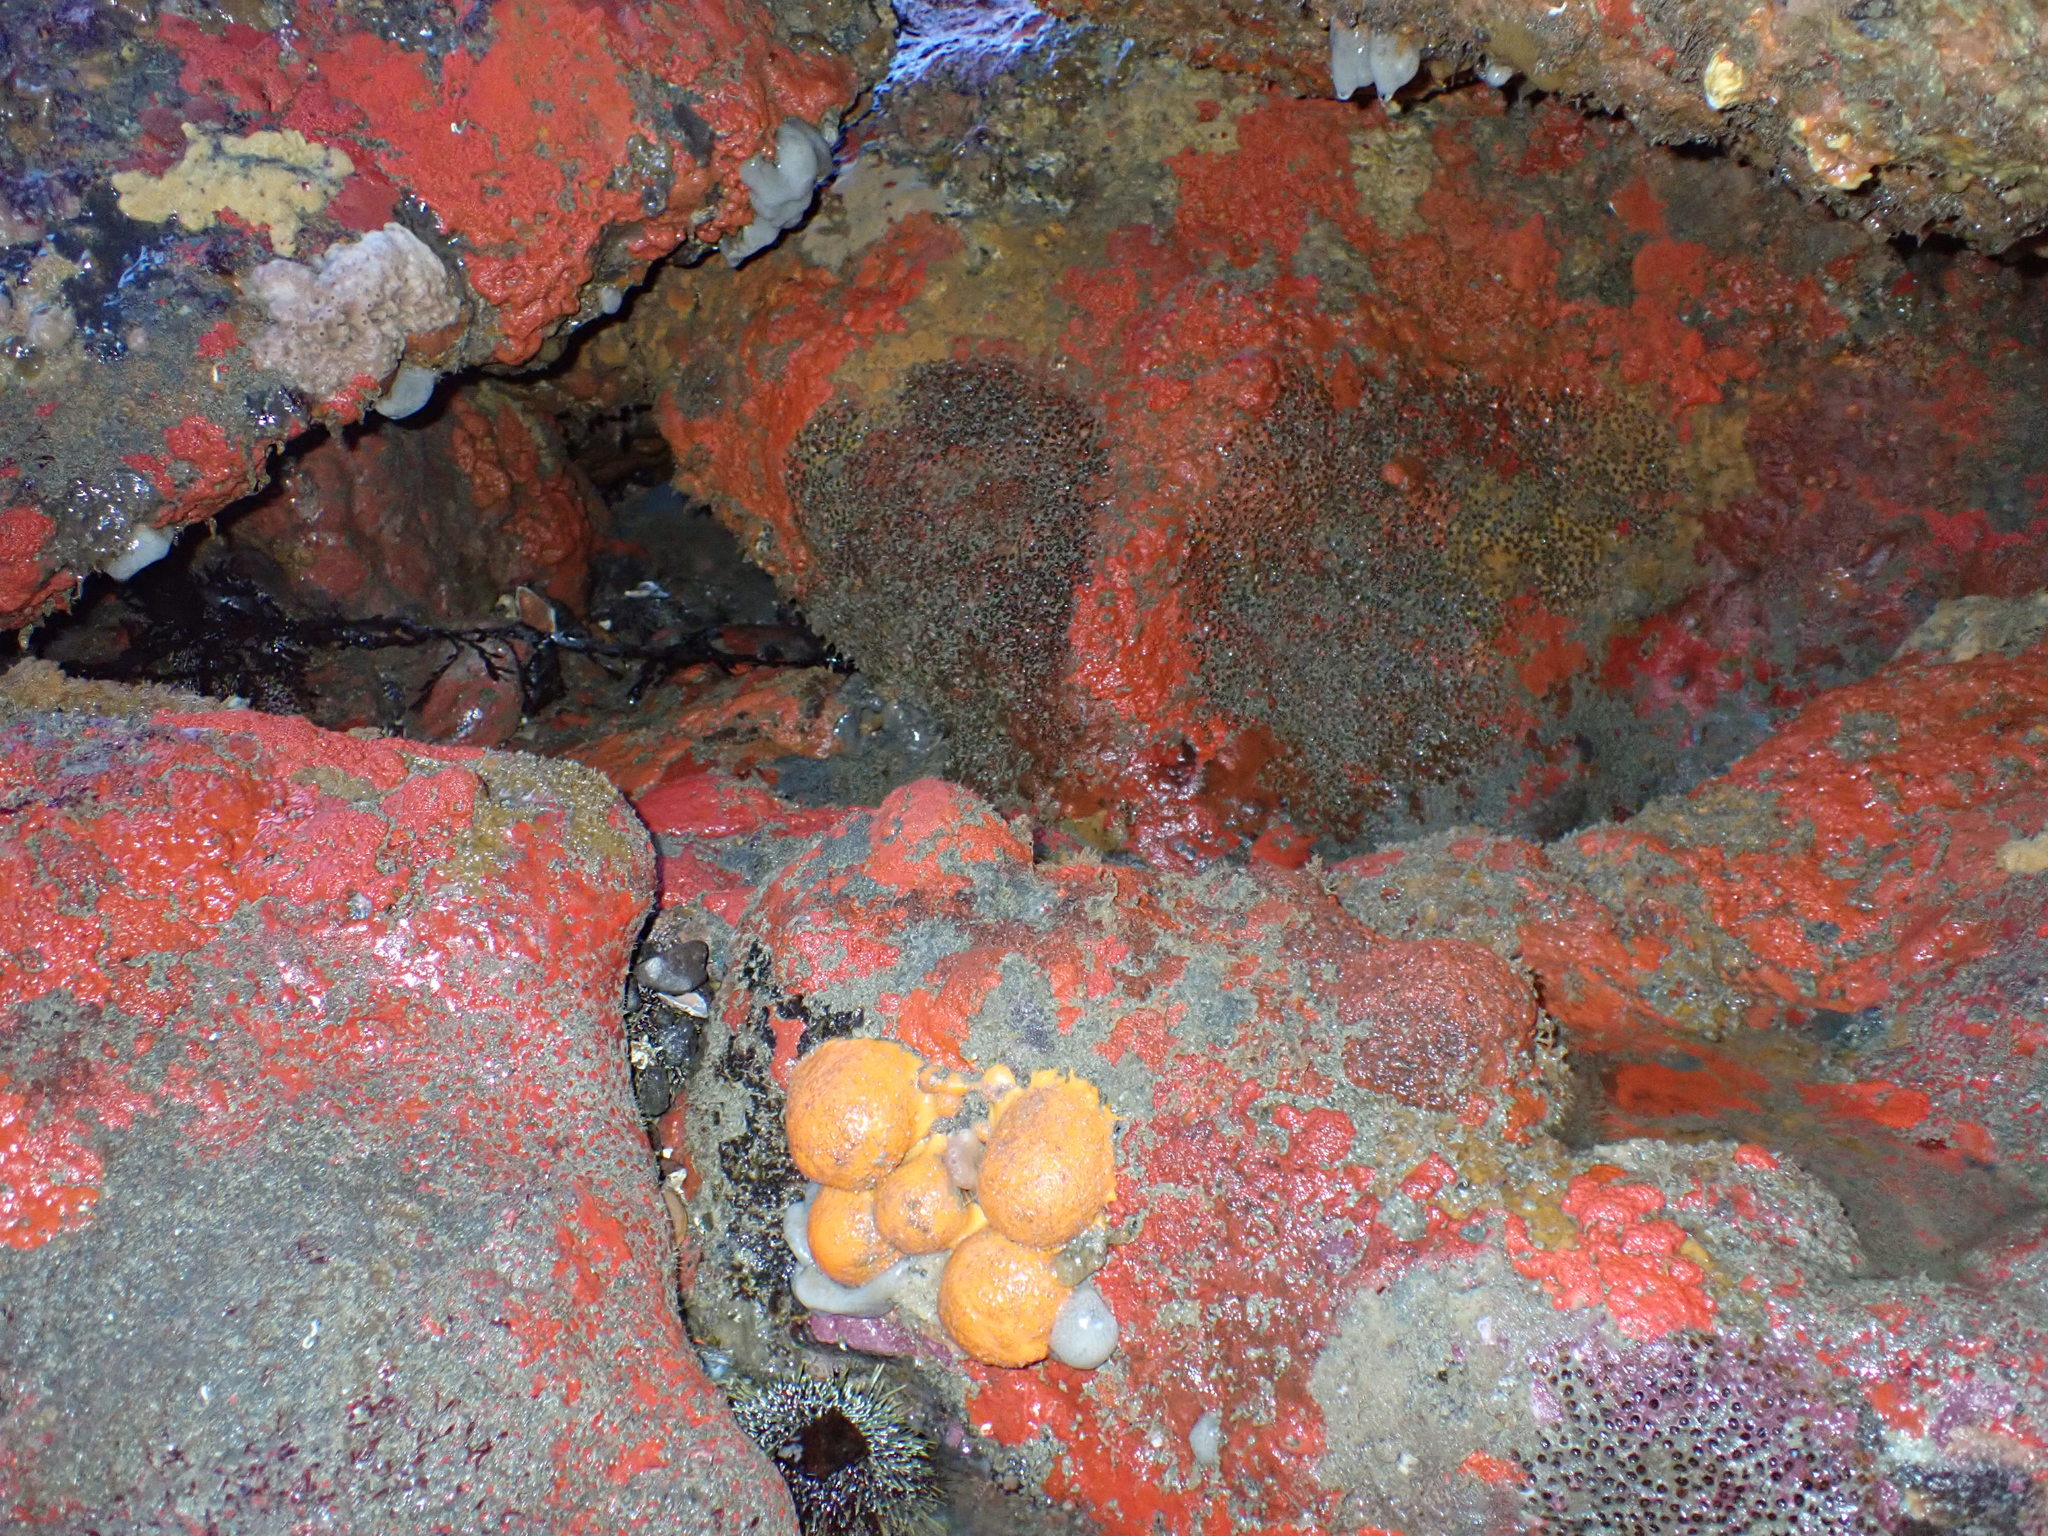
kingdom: Animalia
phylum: Cnidaria
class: Anthozoa
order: Scleractinia
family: Rhizangiidae
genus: Culicia
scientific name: Culicia rubeola
